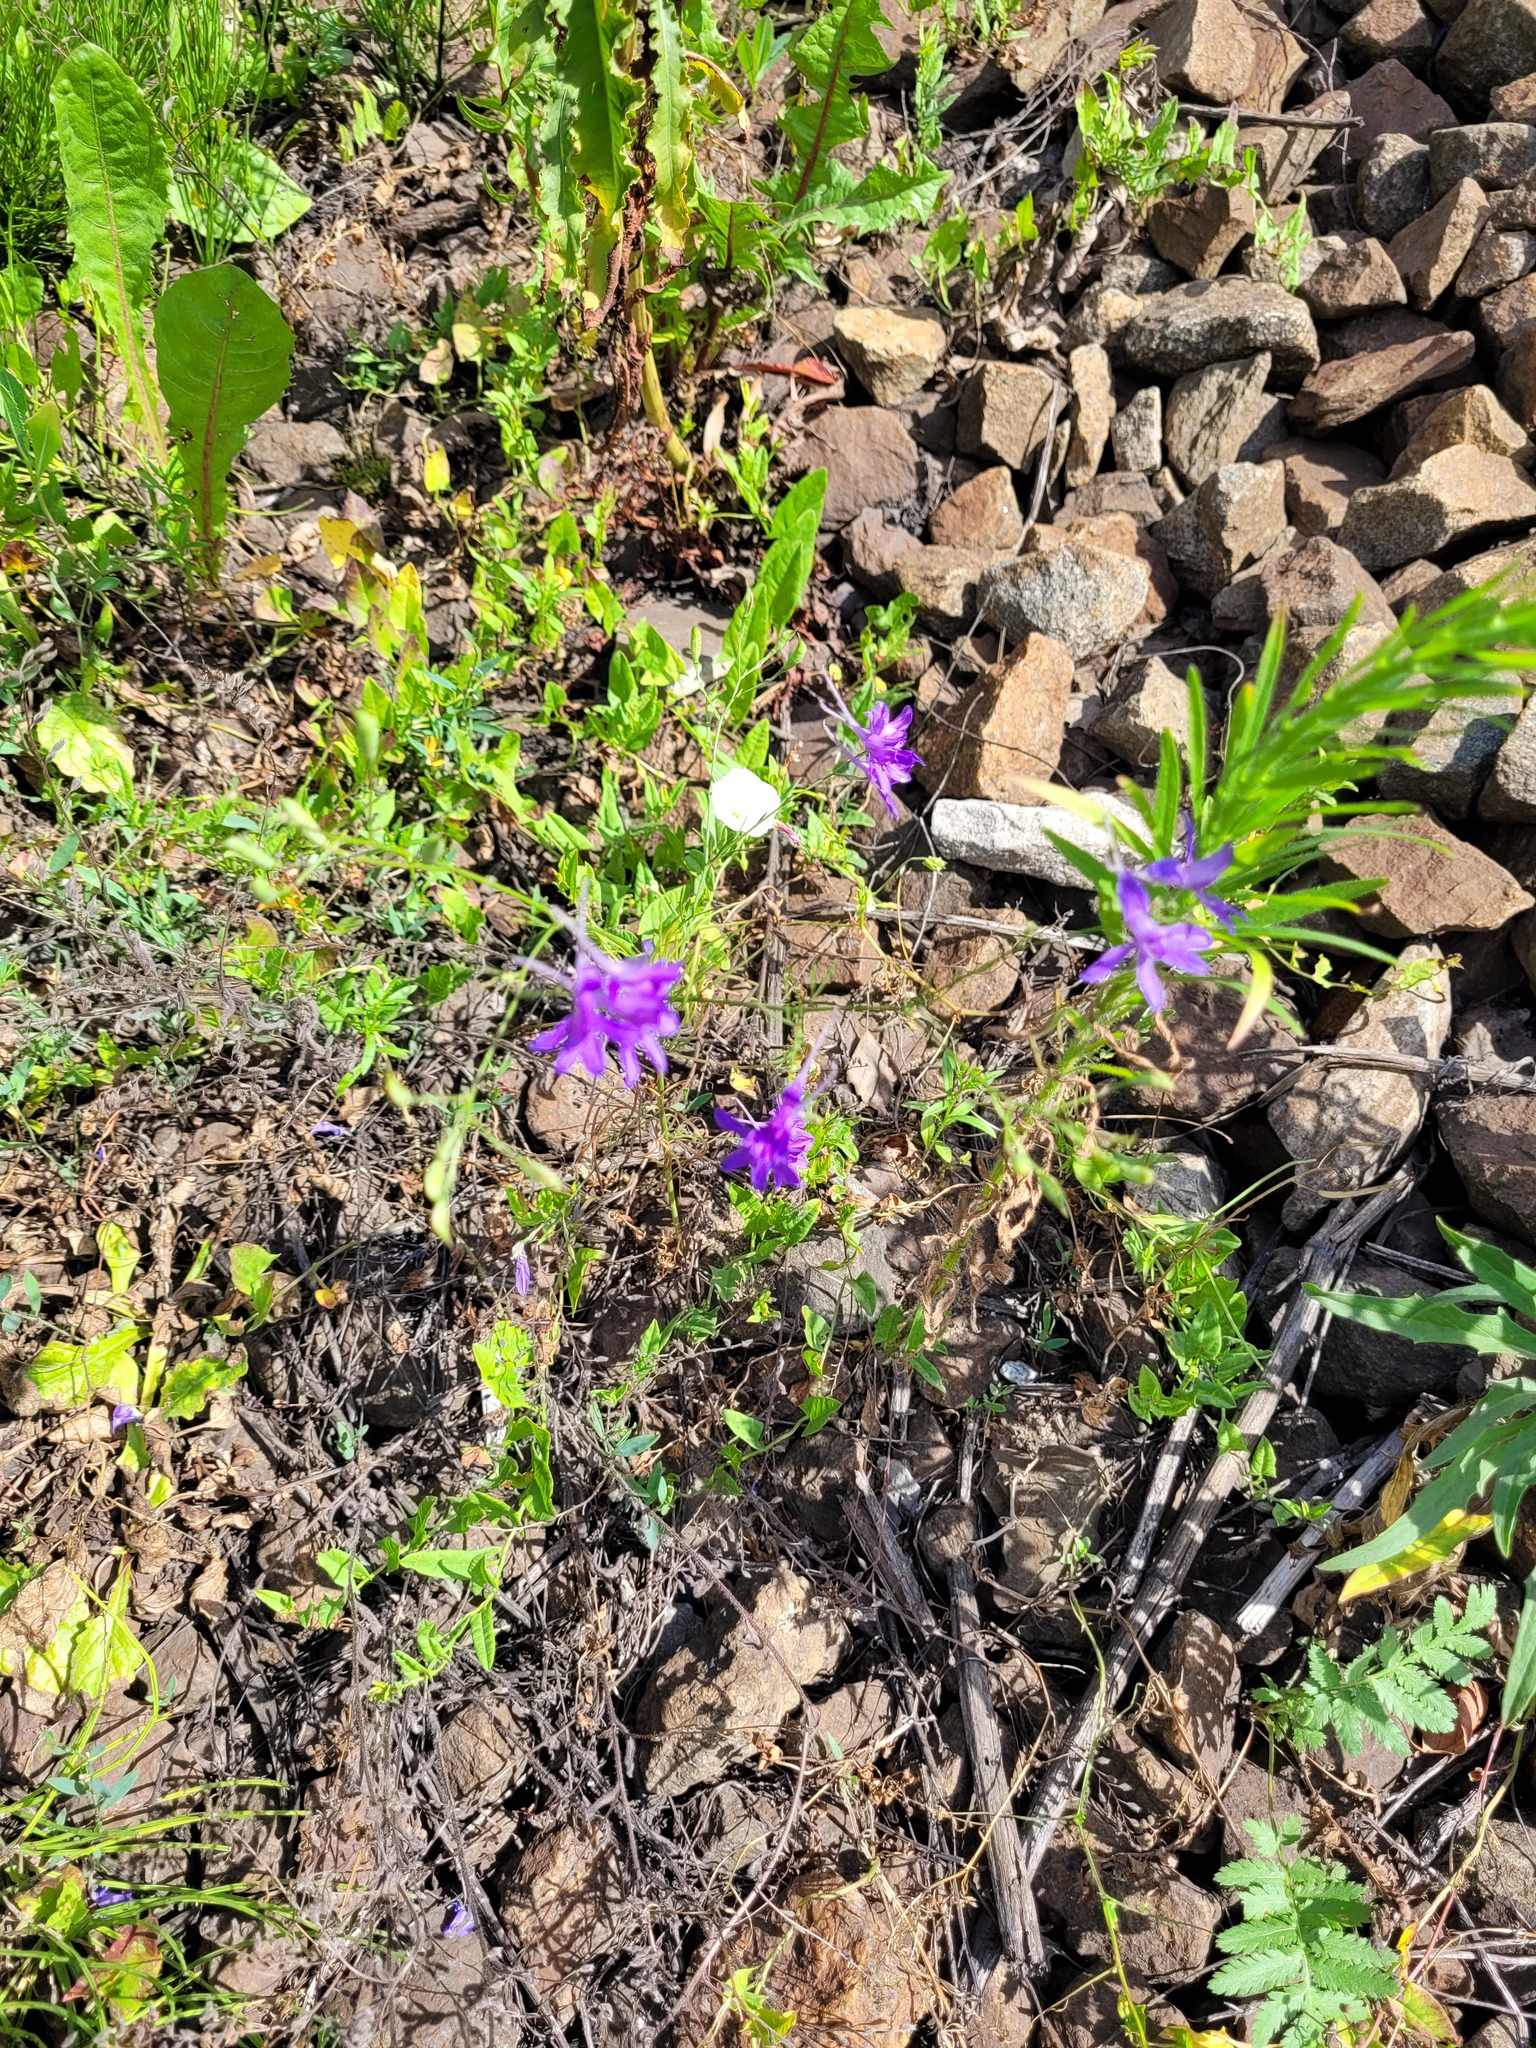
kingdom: Plantae
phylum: Tracheophyta
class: Magnoliopsida
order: Ranunculales
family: Ranunculaceae
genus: Delphinium
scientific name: Delphinium consolida
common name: Branching larkspur
